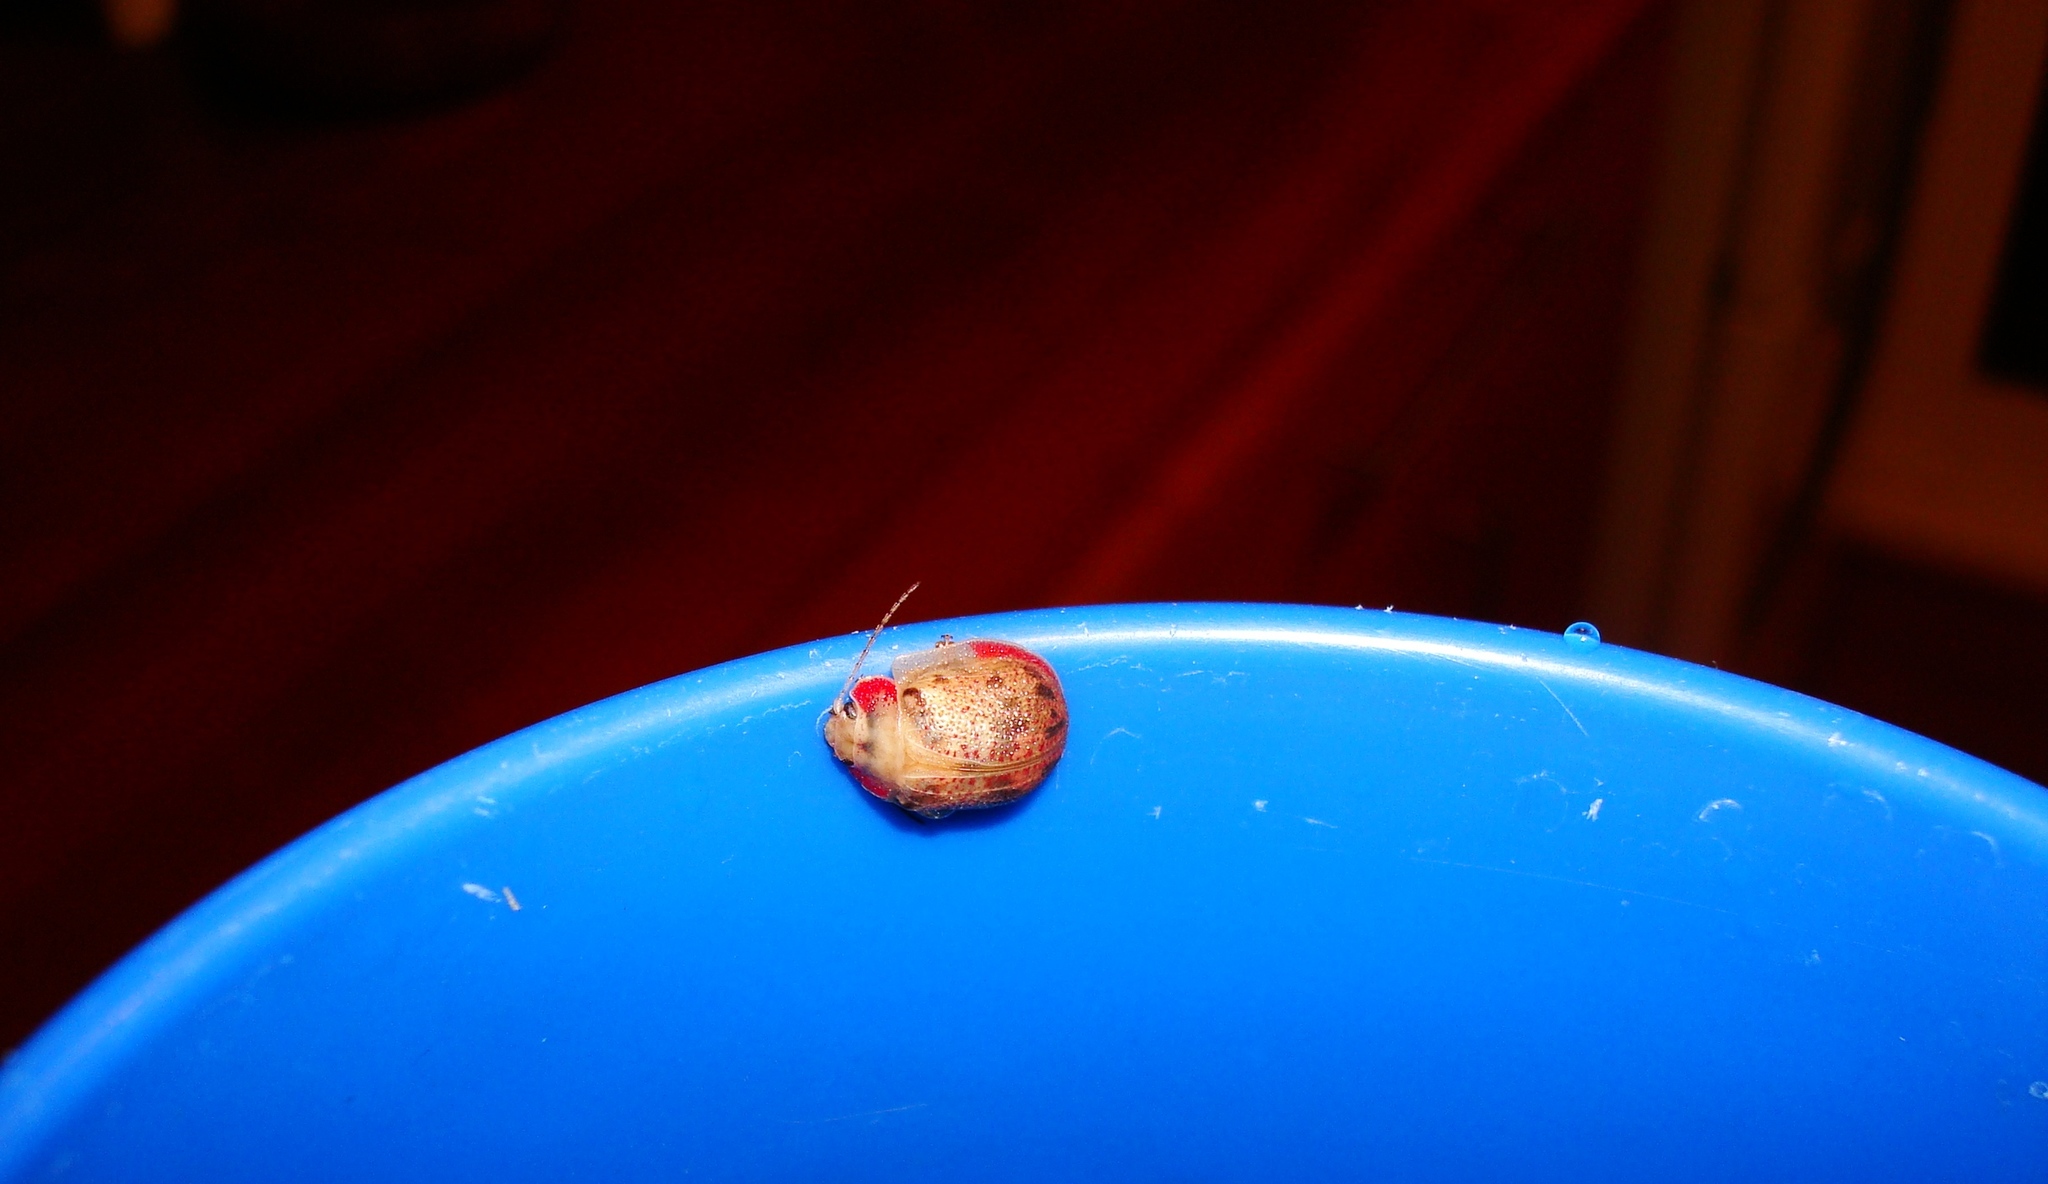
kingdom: Animalia
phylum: Arthropoda
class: Insecta
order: Coleoptera
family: Chrysomelidae
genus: Paropsis
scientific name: Paropsis charybdis
